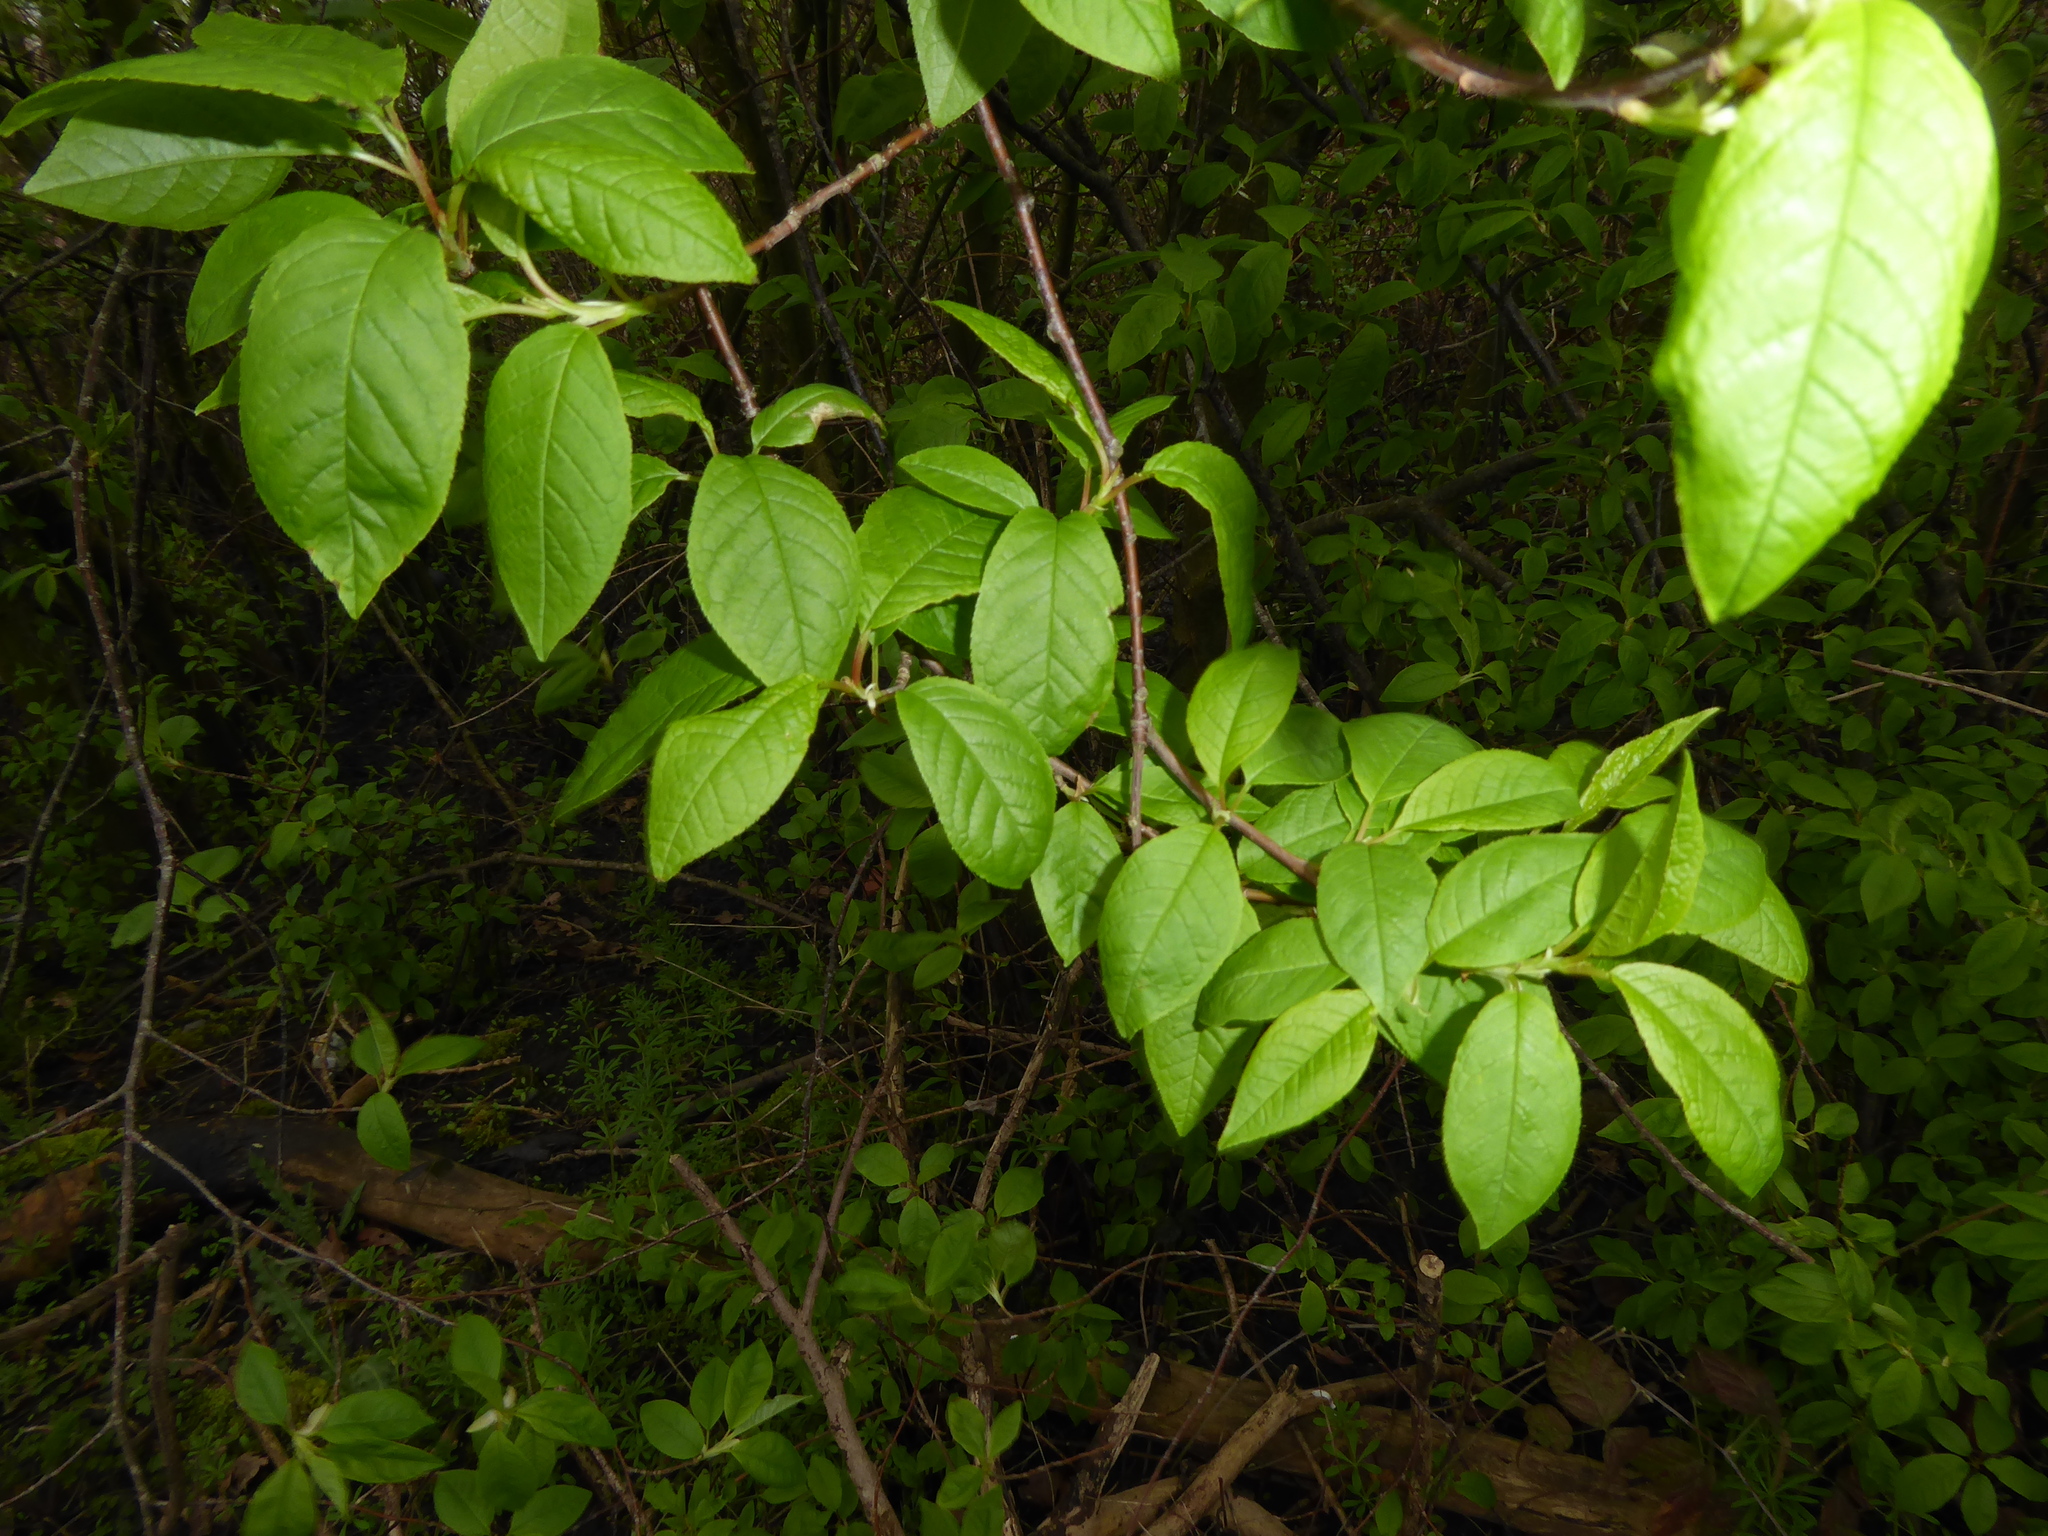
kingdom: Plantae
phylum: Tracheophyta
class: Magnoliopsida
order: Rosales
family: Rosaceae
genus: Prunus
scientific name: Prunus padus
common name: Bird cherry
